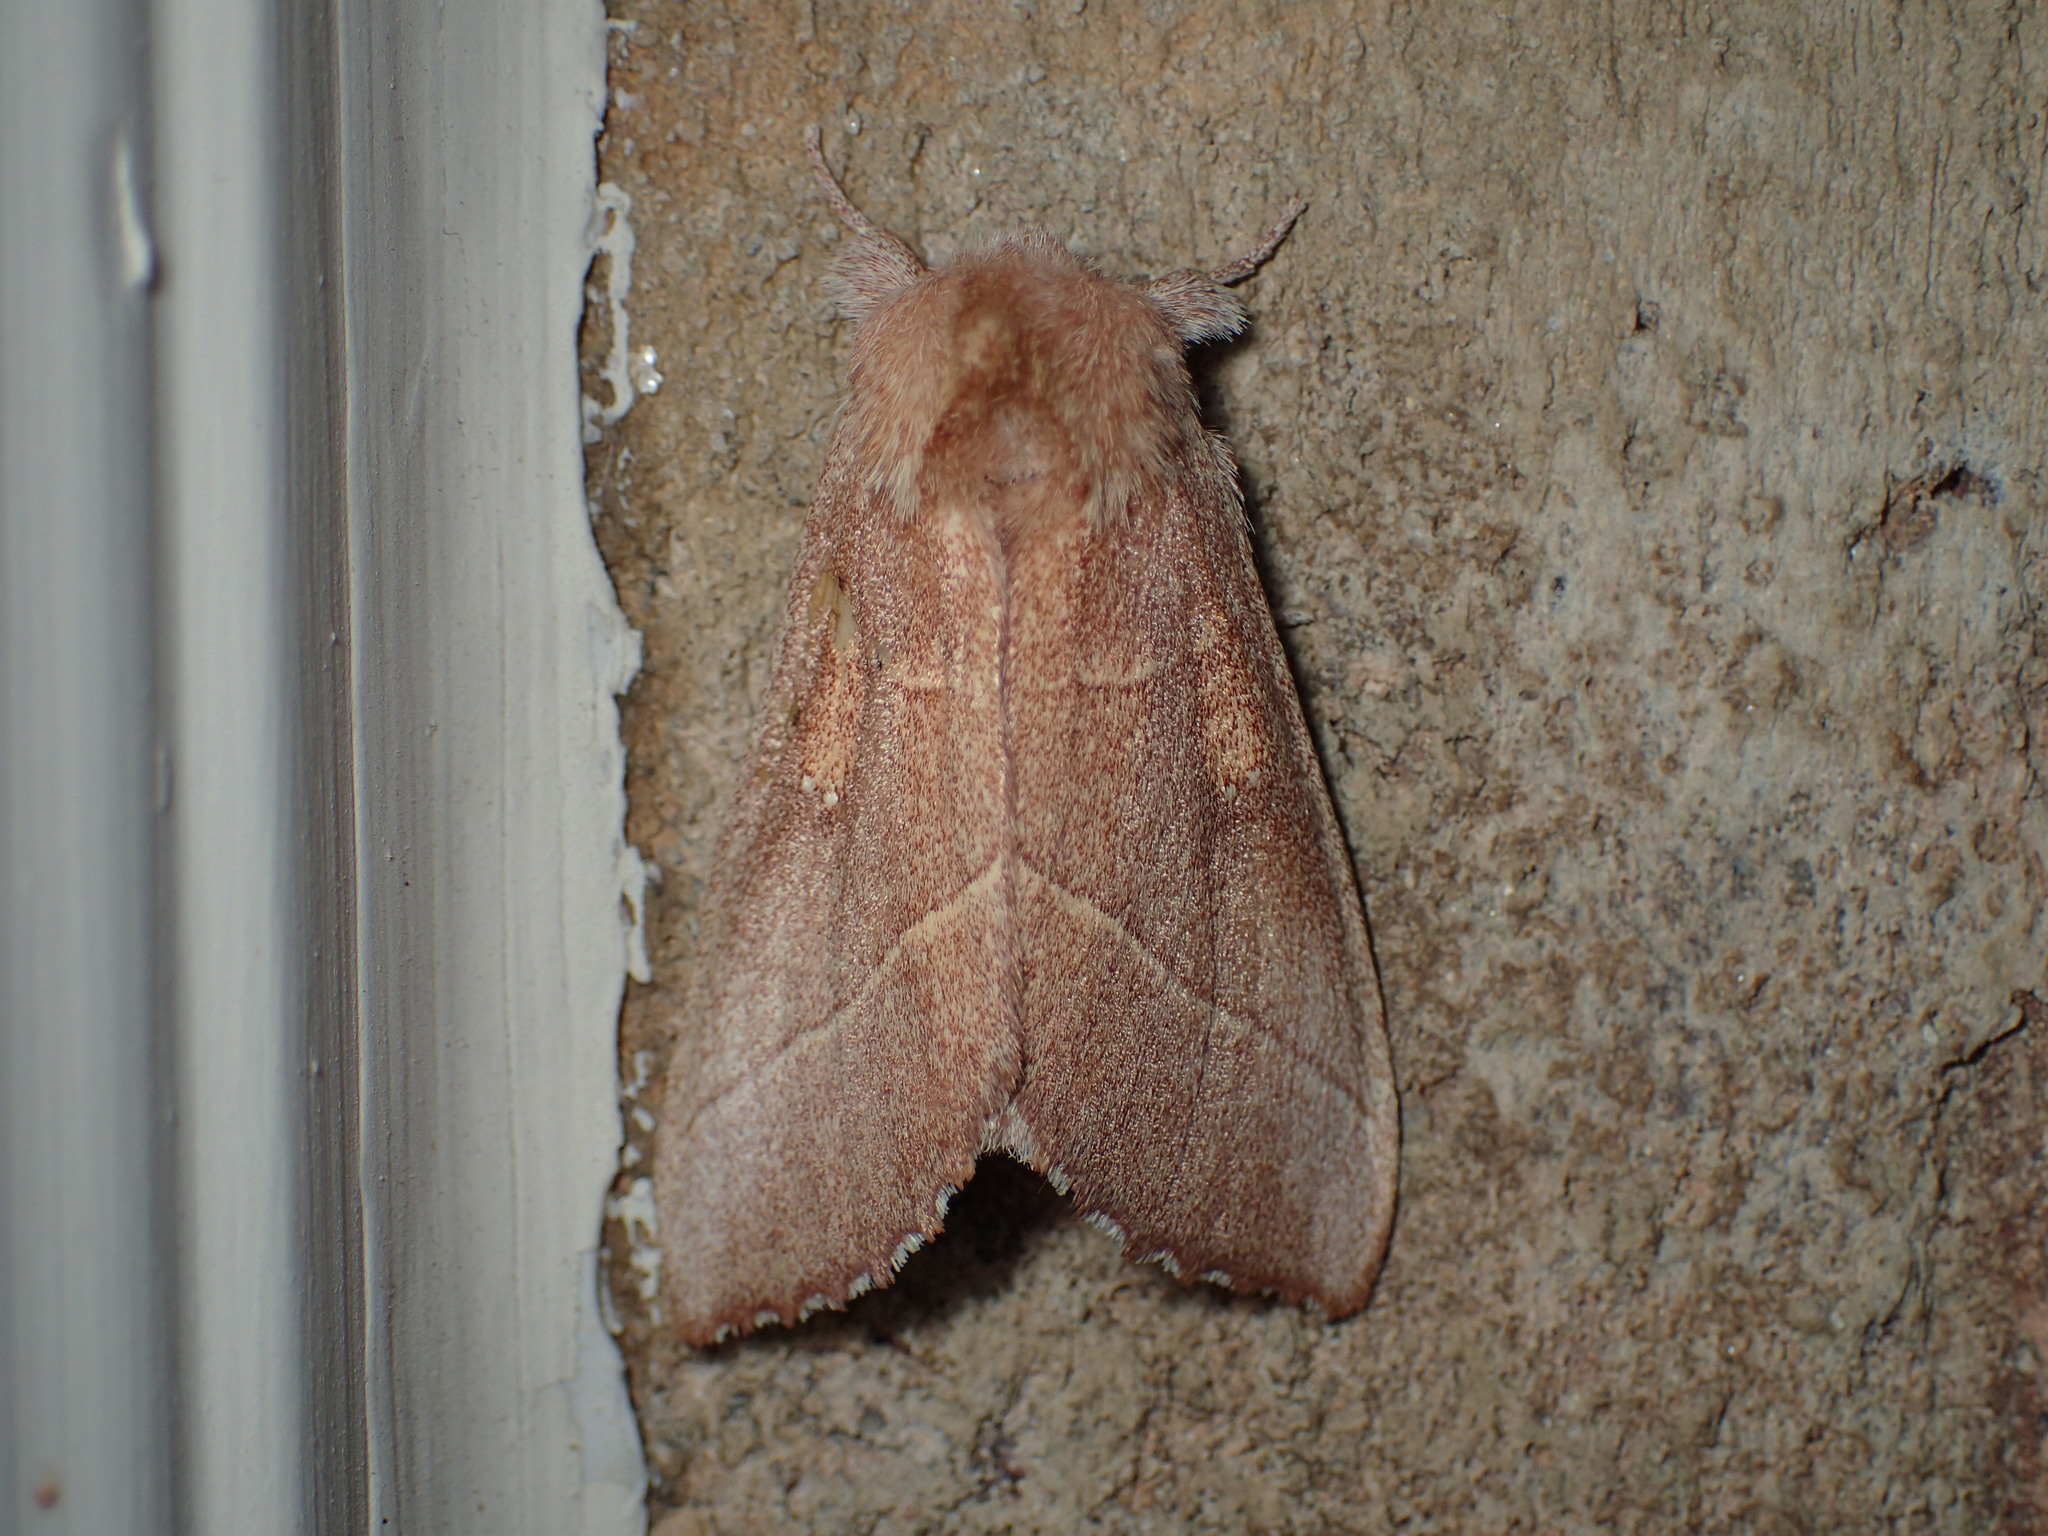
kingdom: Animalia
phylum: Arthropoda
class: Insecta
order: Lepidoptera
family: Notodontidae
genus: Nadata
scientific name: Nadata gibbosa
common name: White-dotted prominent
